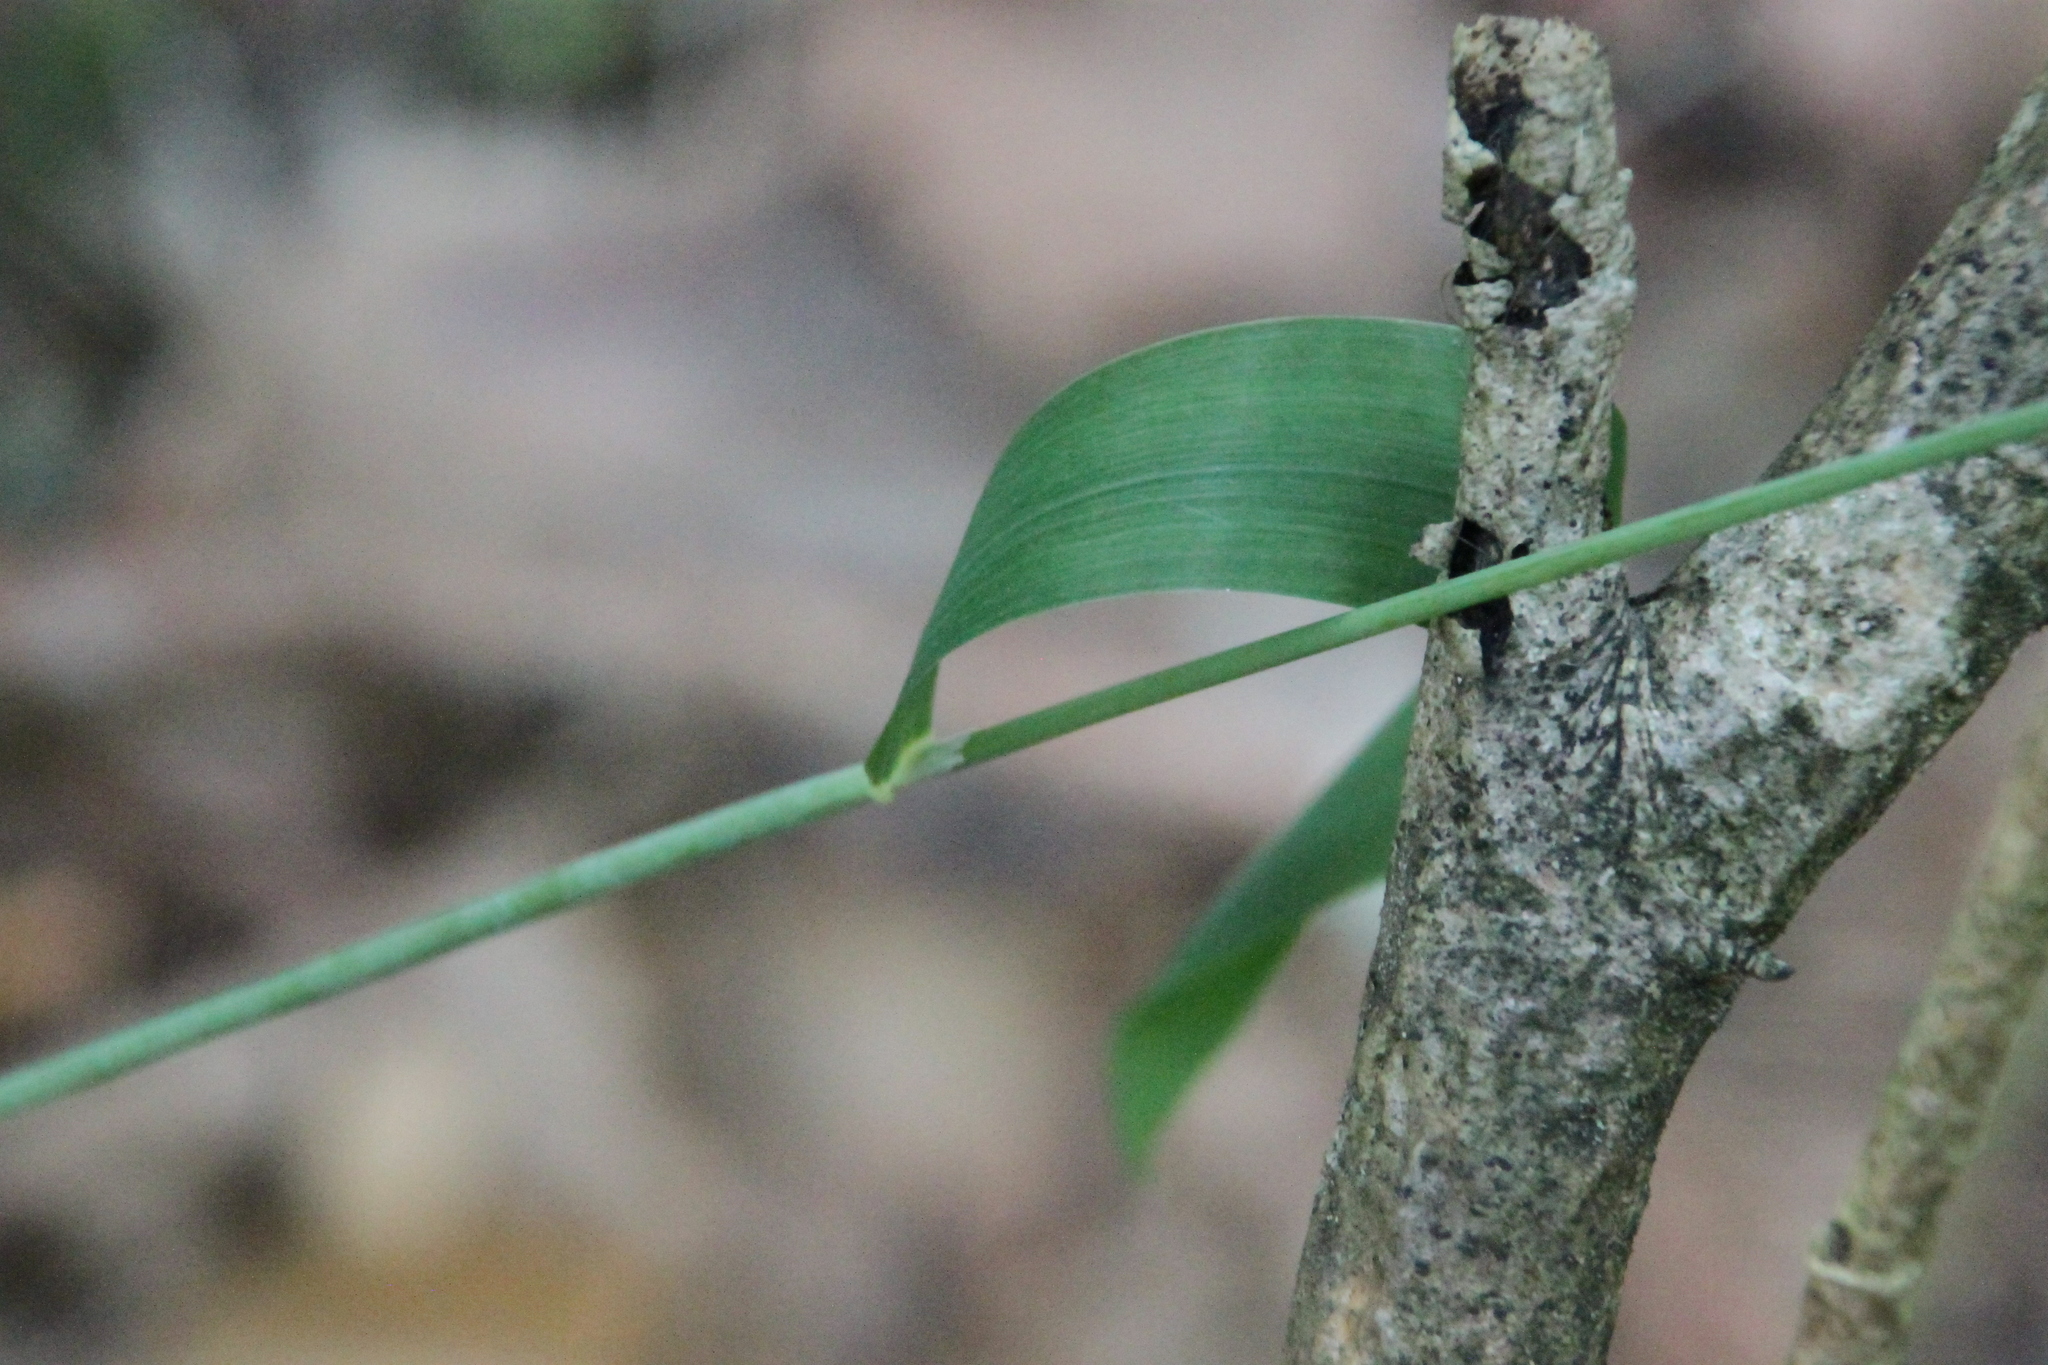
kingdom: Plantae
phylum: Tracheophyta
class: Liliopsida
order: Poales
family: Poaceae
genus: Milium
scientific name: Milium effusum
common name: Wood millet
